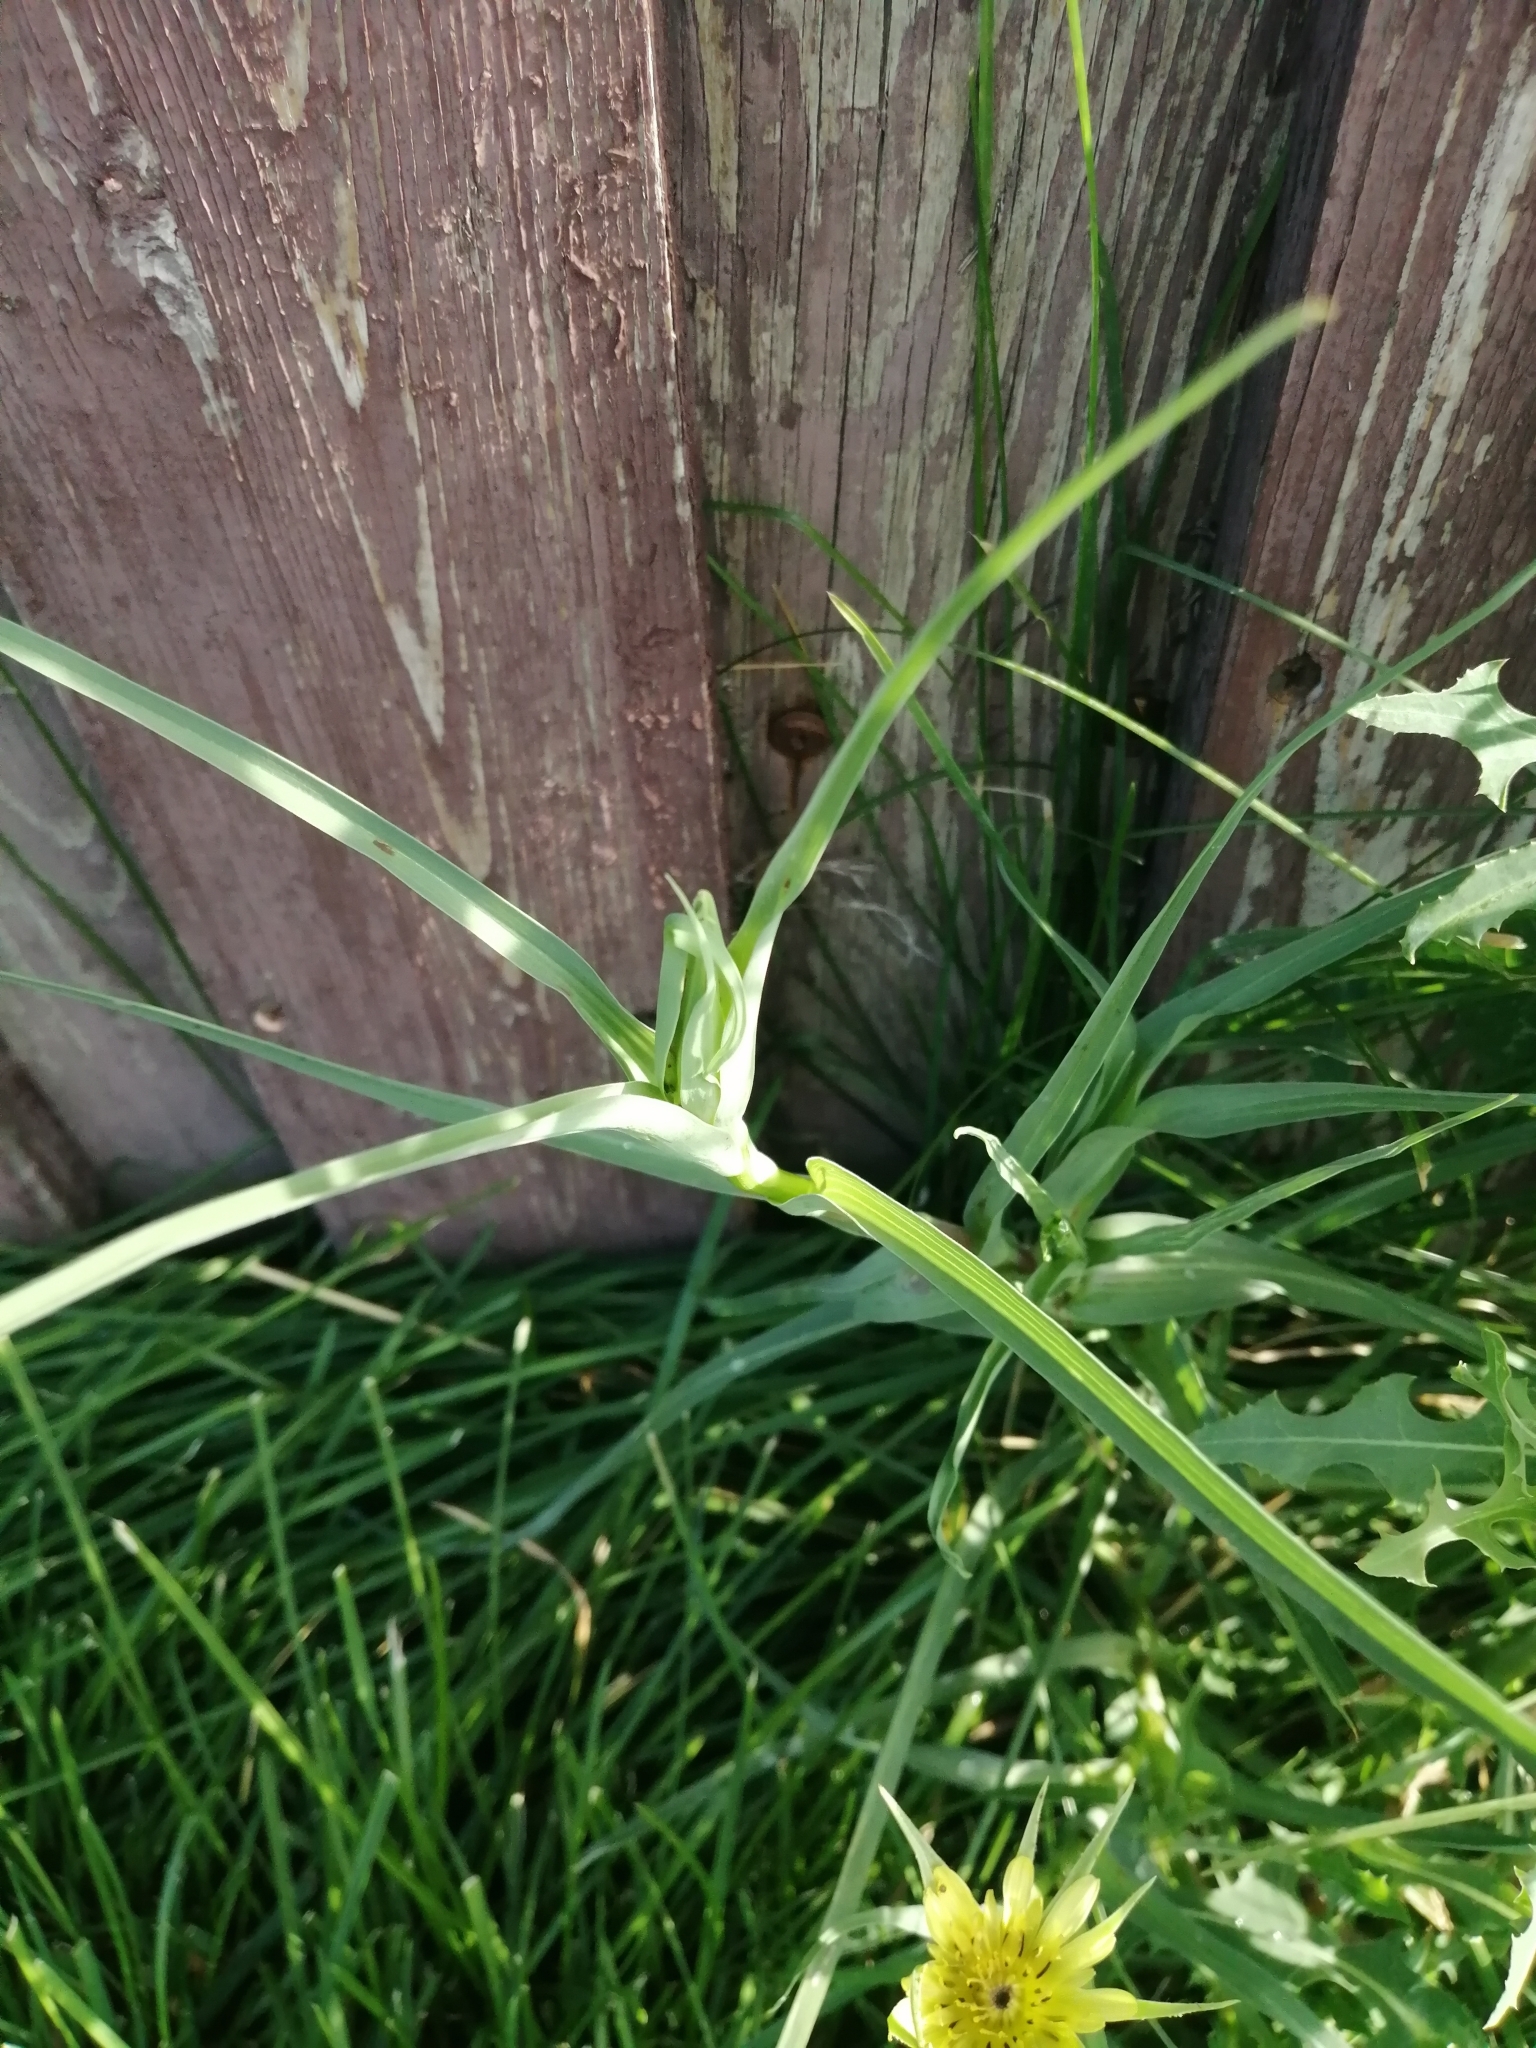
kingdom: Plantae
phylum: Tracheophyta
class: Magnoliopsida
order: Asterales
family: Asteraceae
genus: Tragopogon
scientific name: Tragopogon dubius
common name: Yellow salsify
